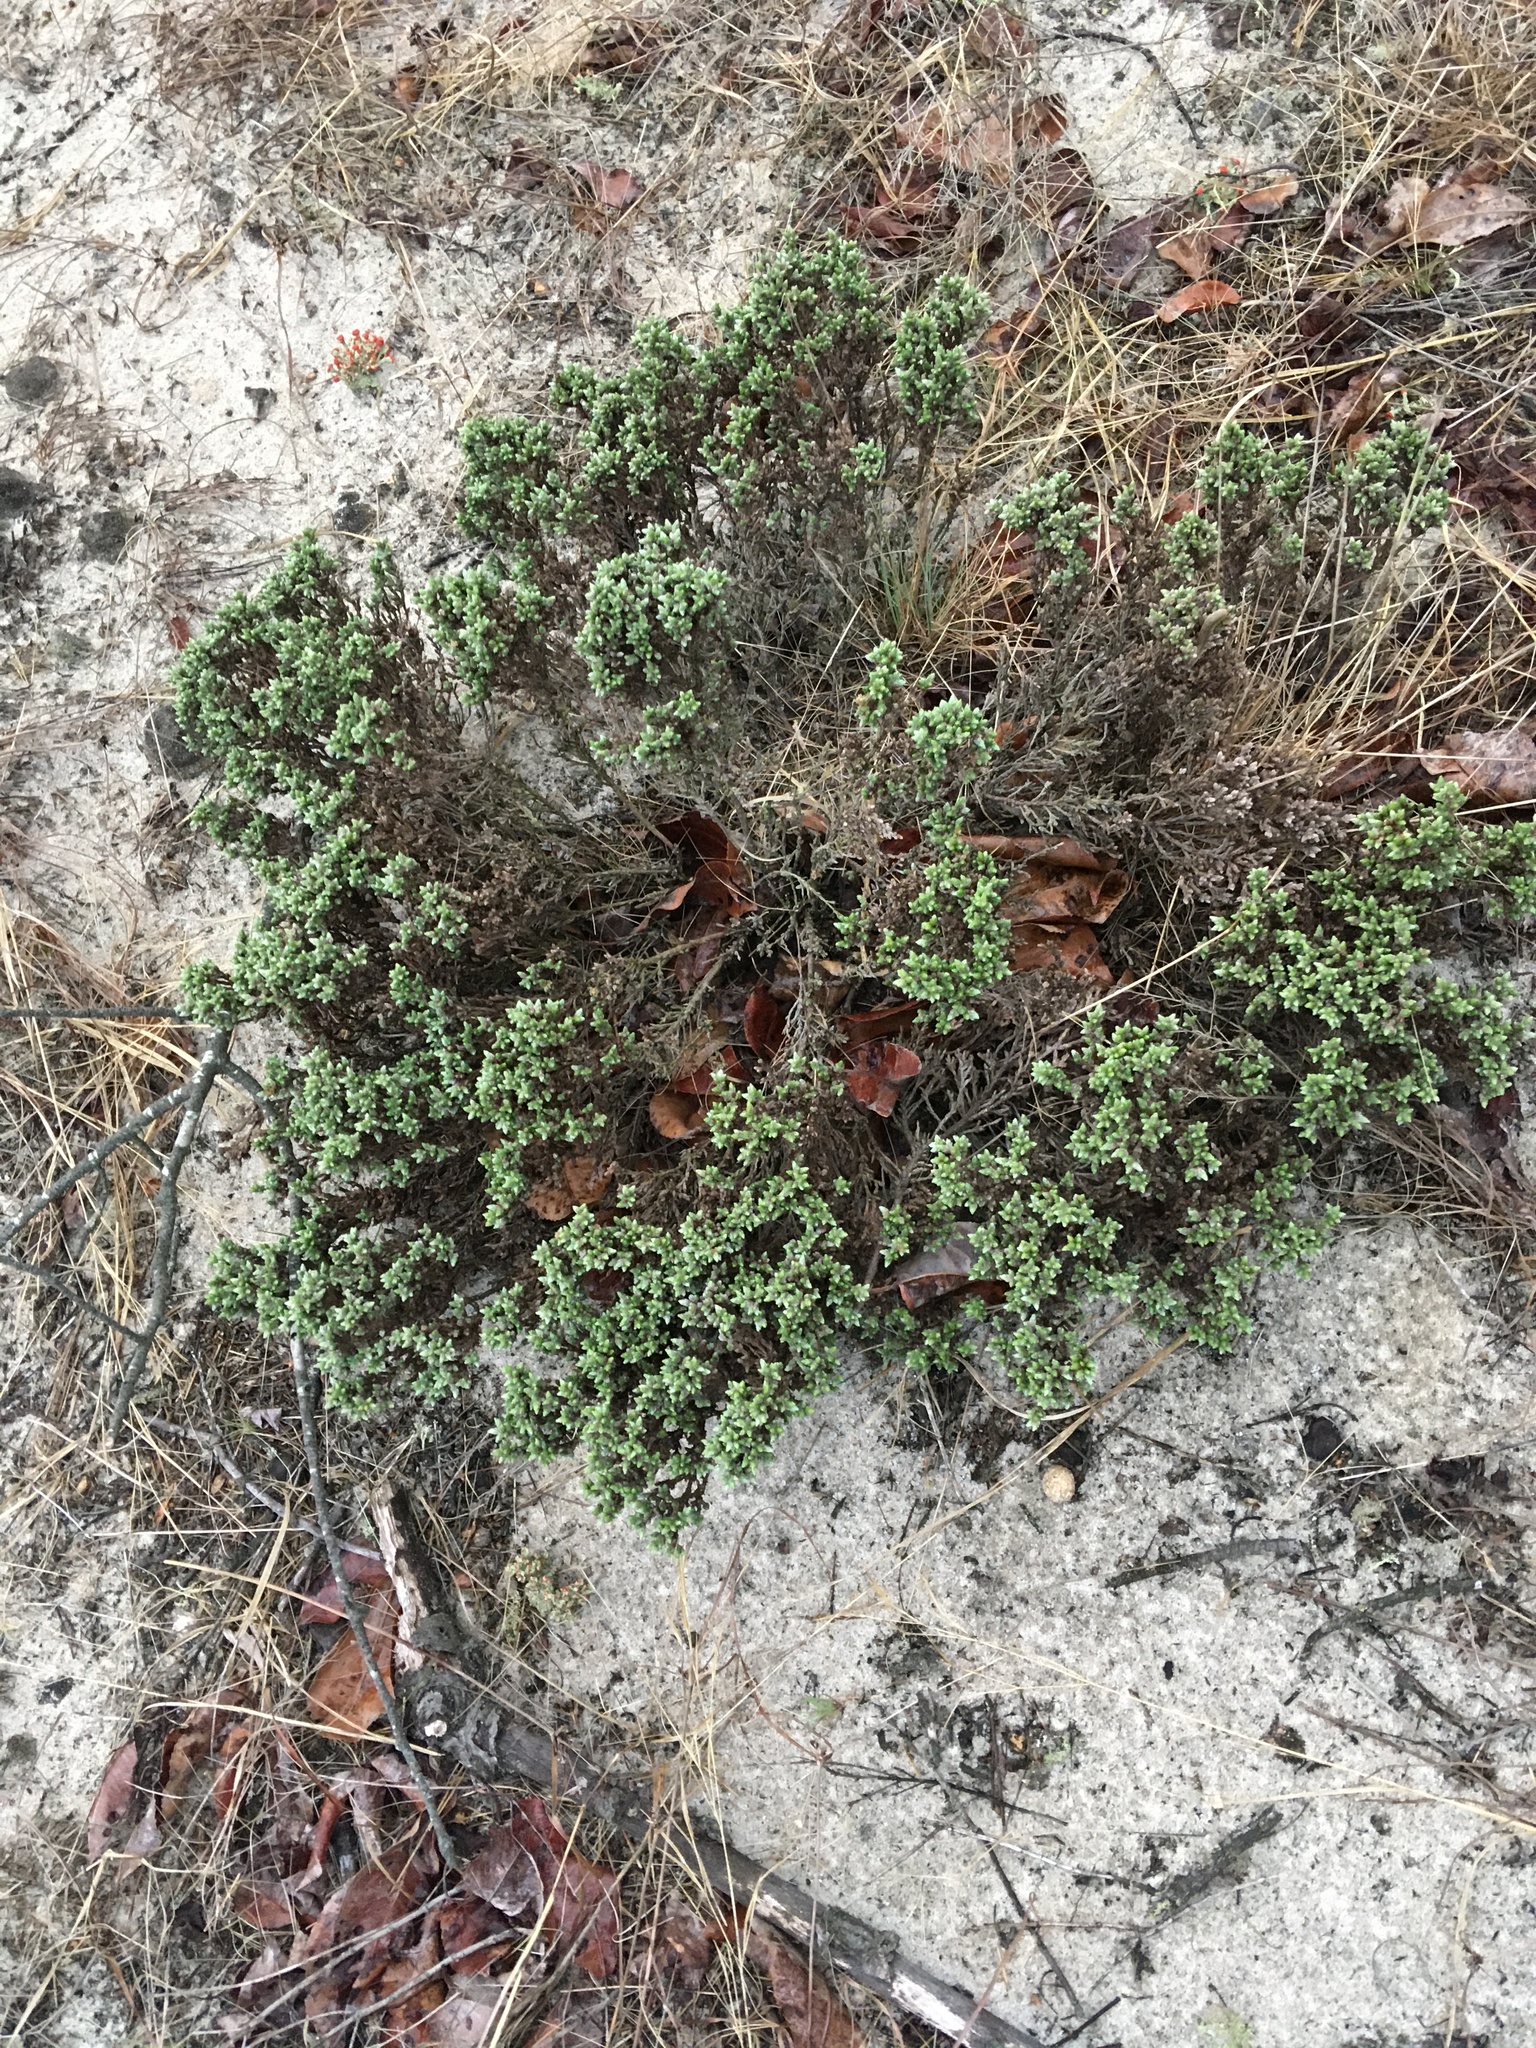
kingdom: Plantae
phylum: Tracheophyta
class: Magnoliopsida
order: Malvales
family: Cistaceae
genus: Hudsonia
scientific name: Hudsonia tomentosa
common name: Beach-heath
